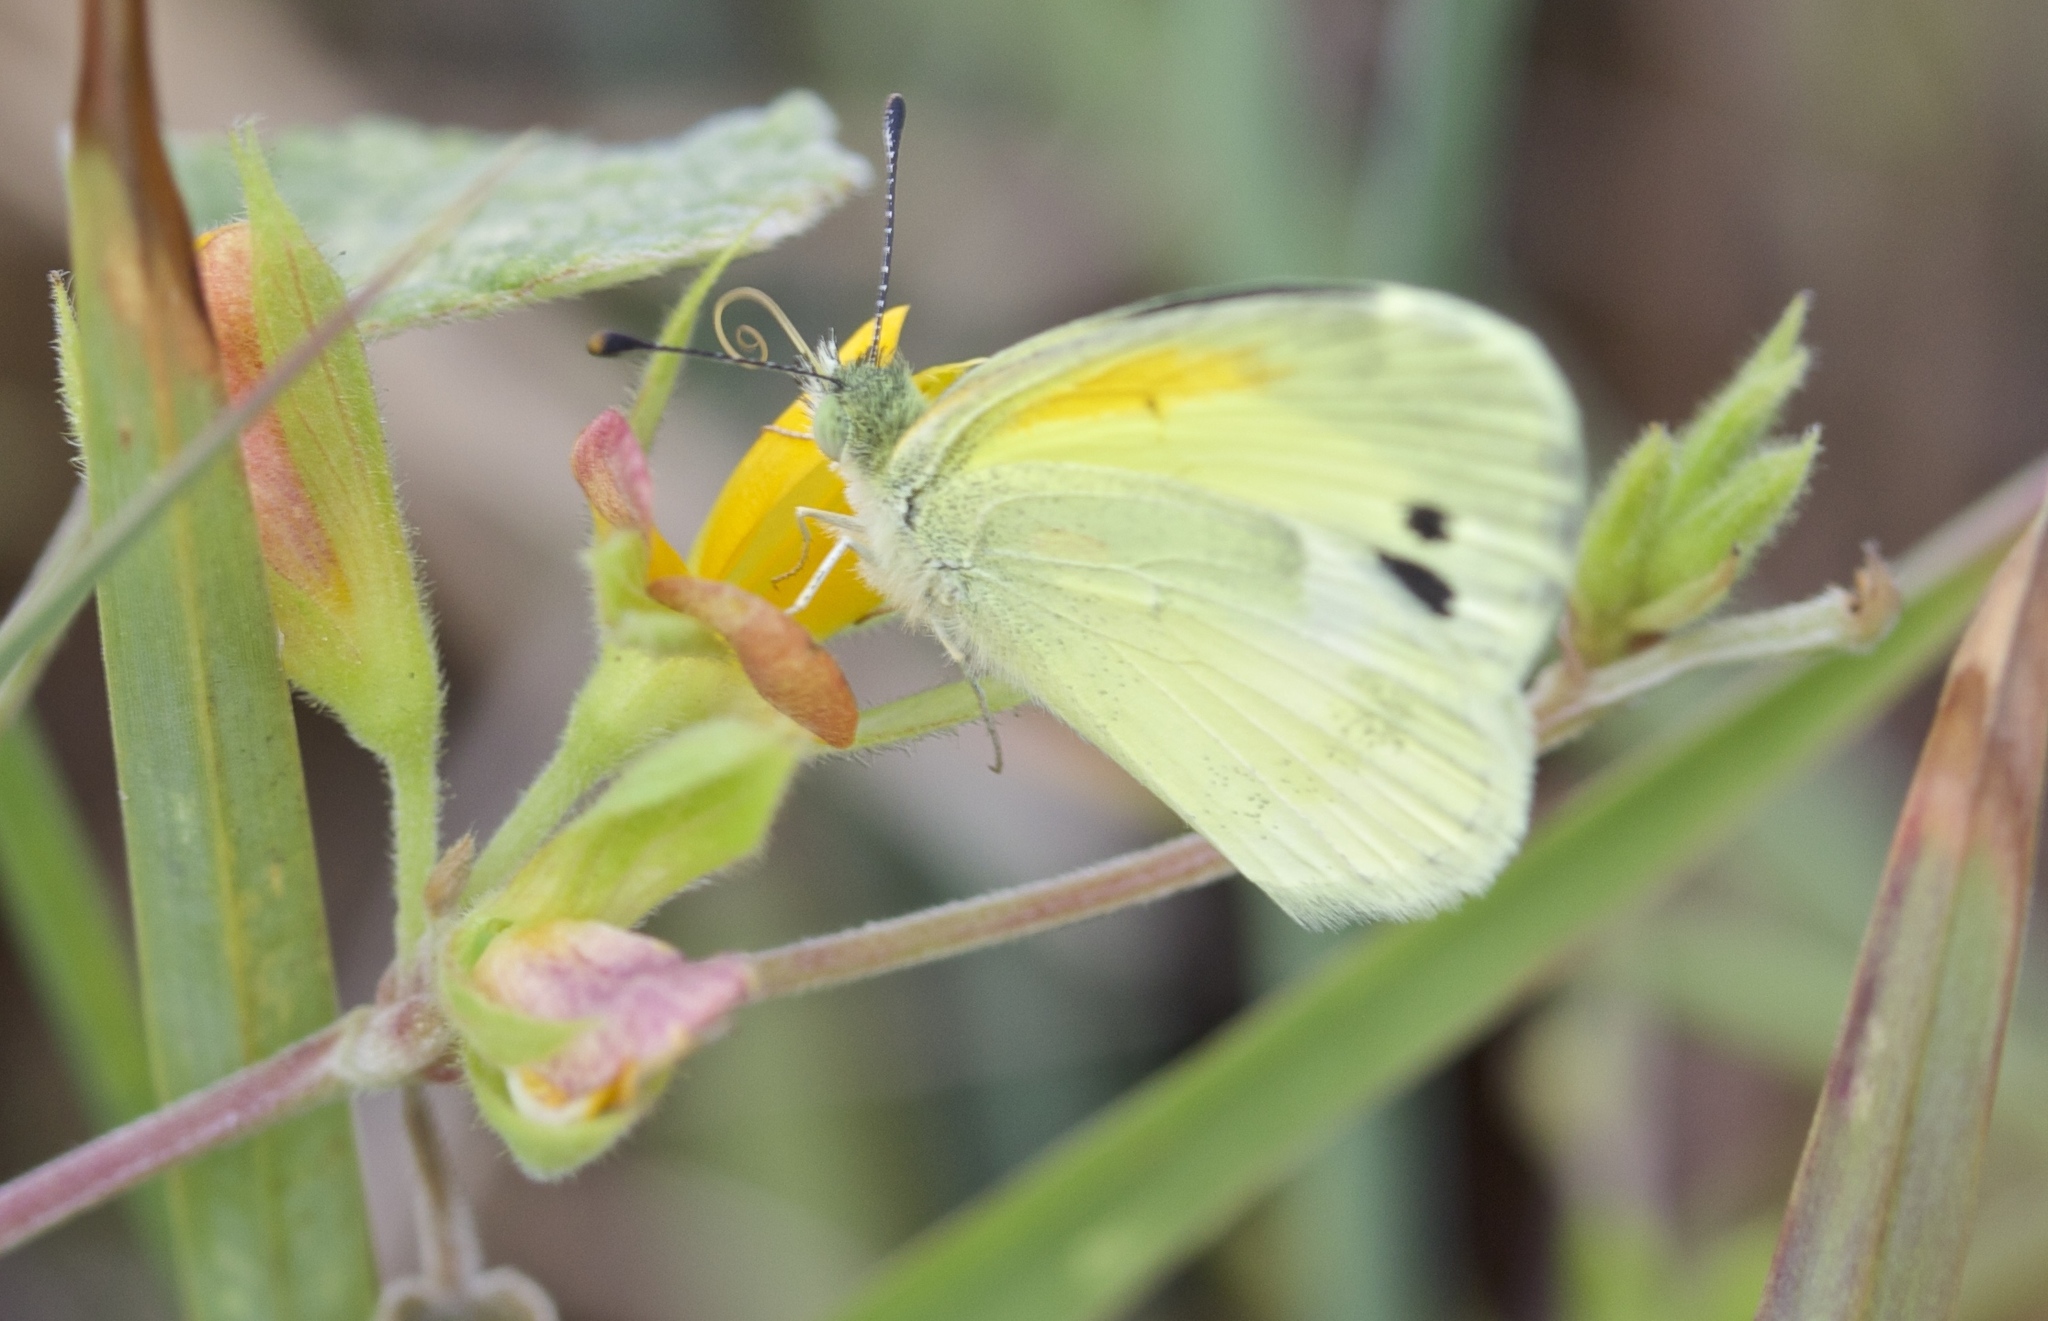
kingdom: Animalia
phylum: Arthropoda
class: Insecta
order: Lepidoptera
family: Pieridae
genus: Nathalis
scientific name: Nathalis iole
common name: Dainty sulphur
